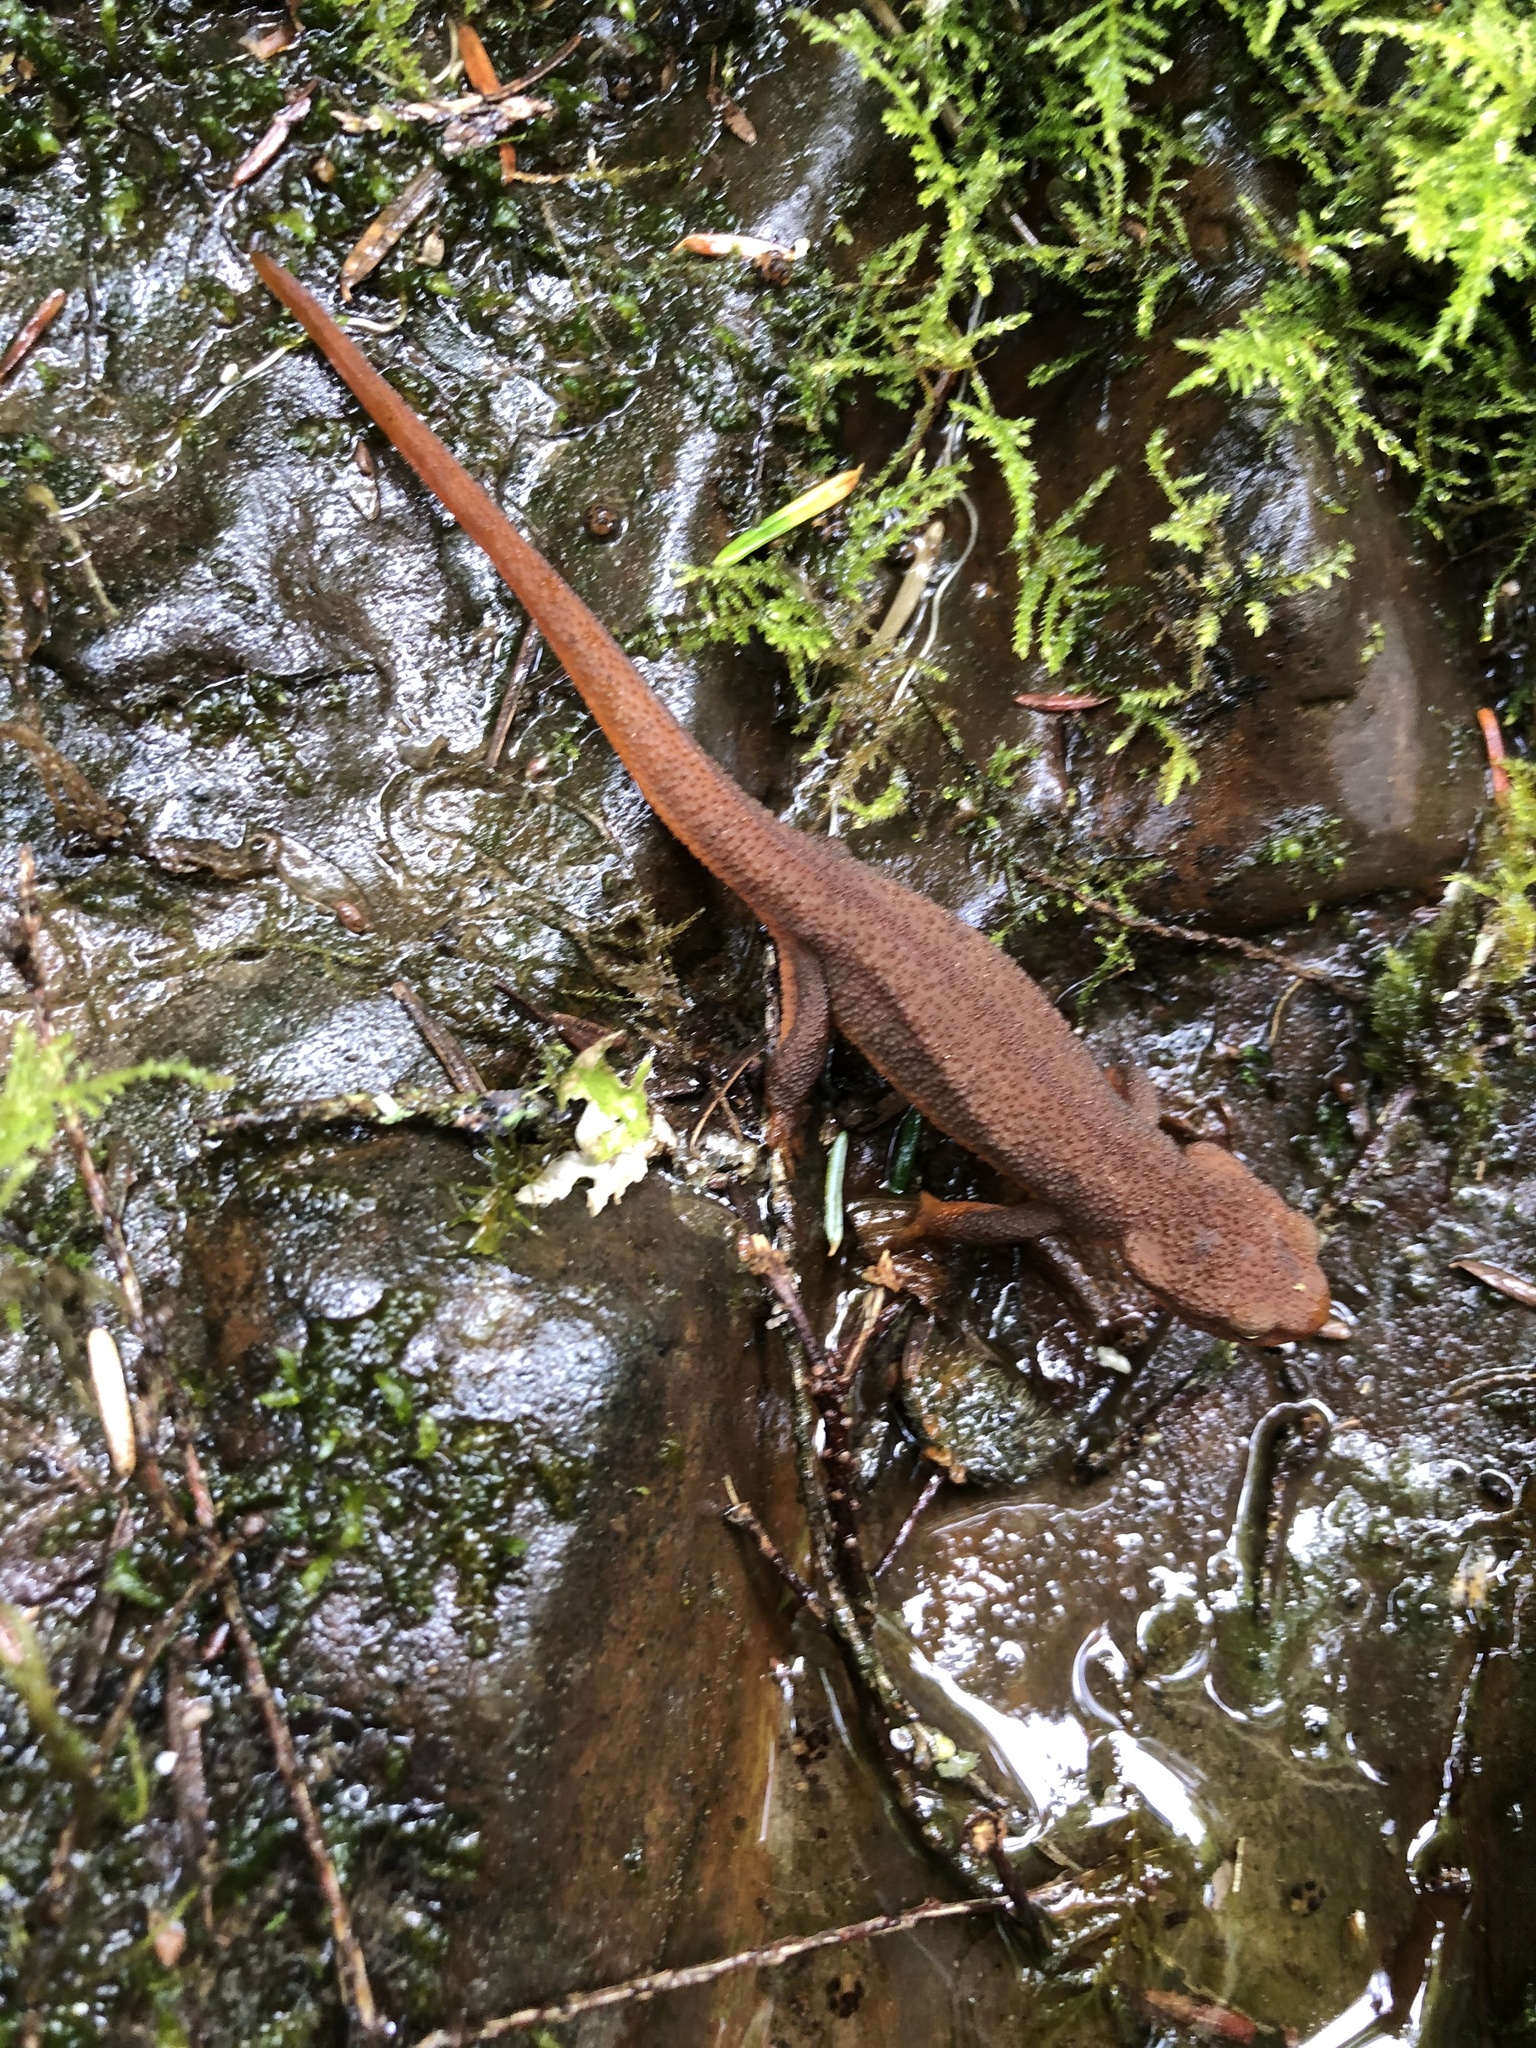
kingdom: Animalia
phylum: Chordata
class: Amphibia
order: Caudata
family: Salamandridae
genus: Taricha
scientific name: Taricha granulosa
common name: Roughskin newt
